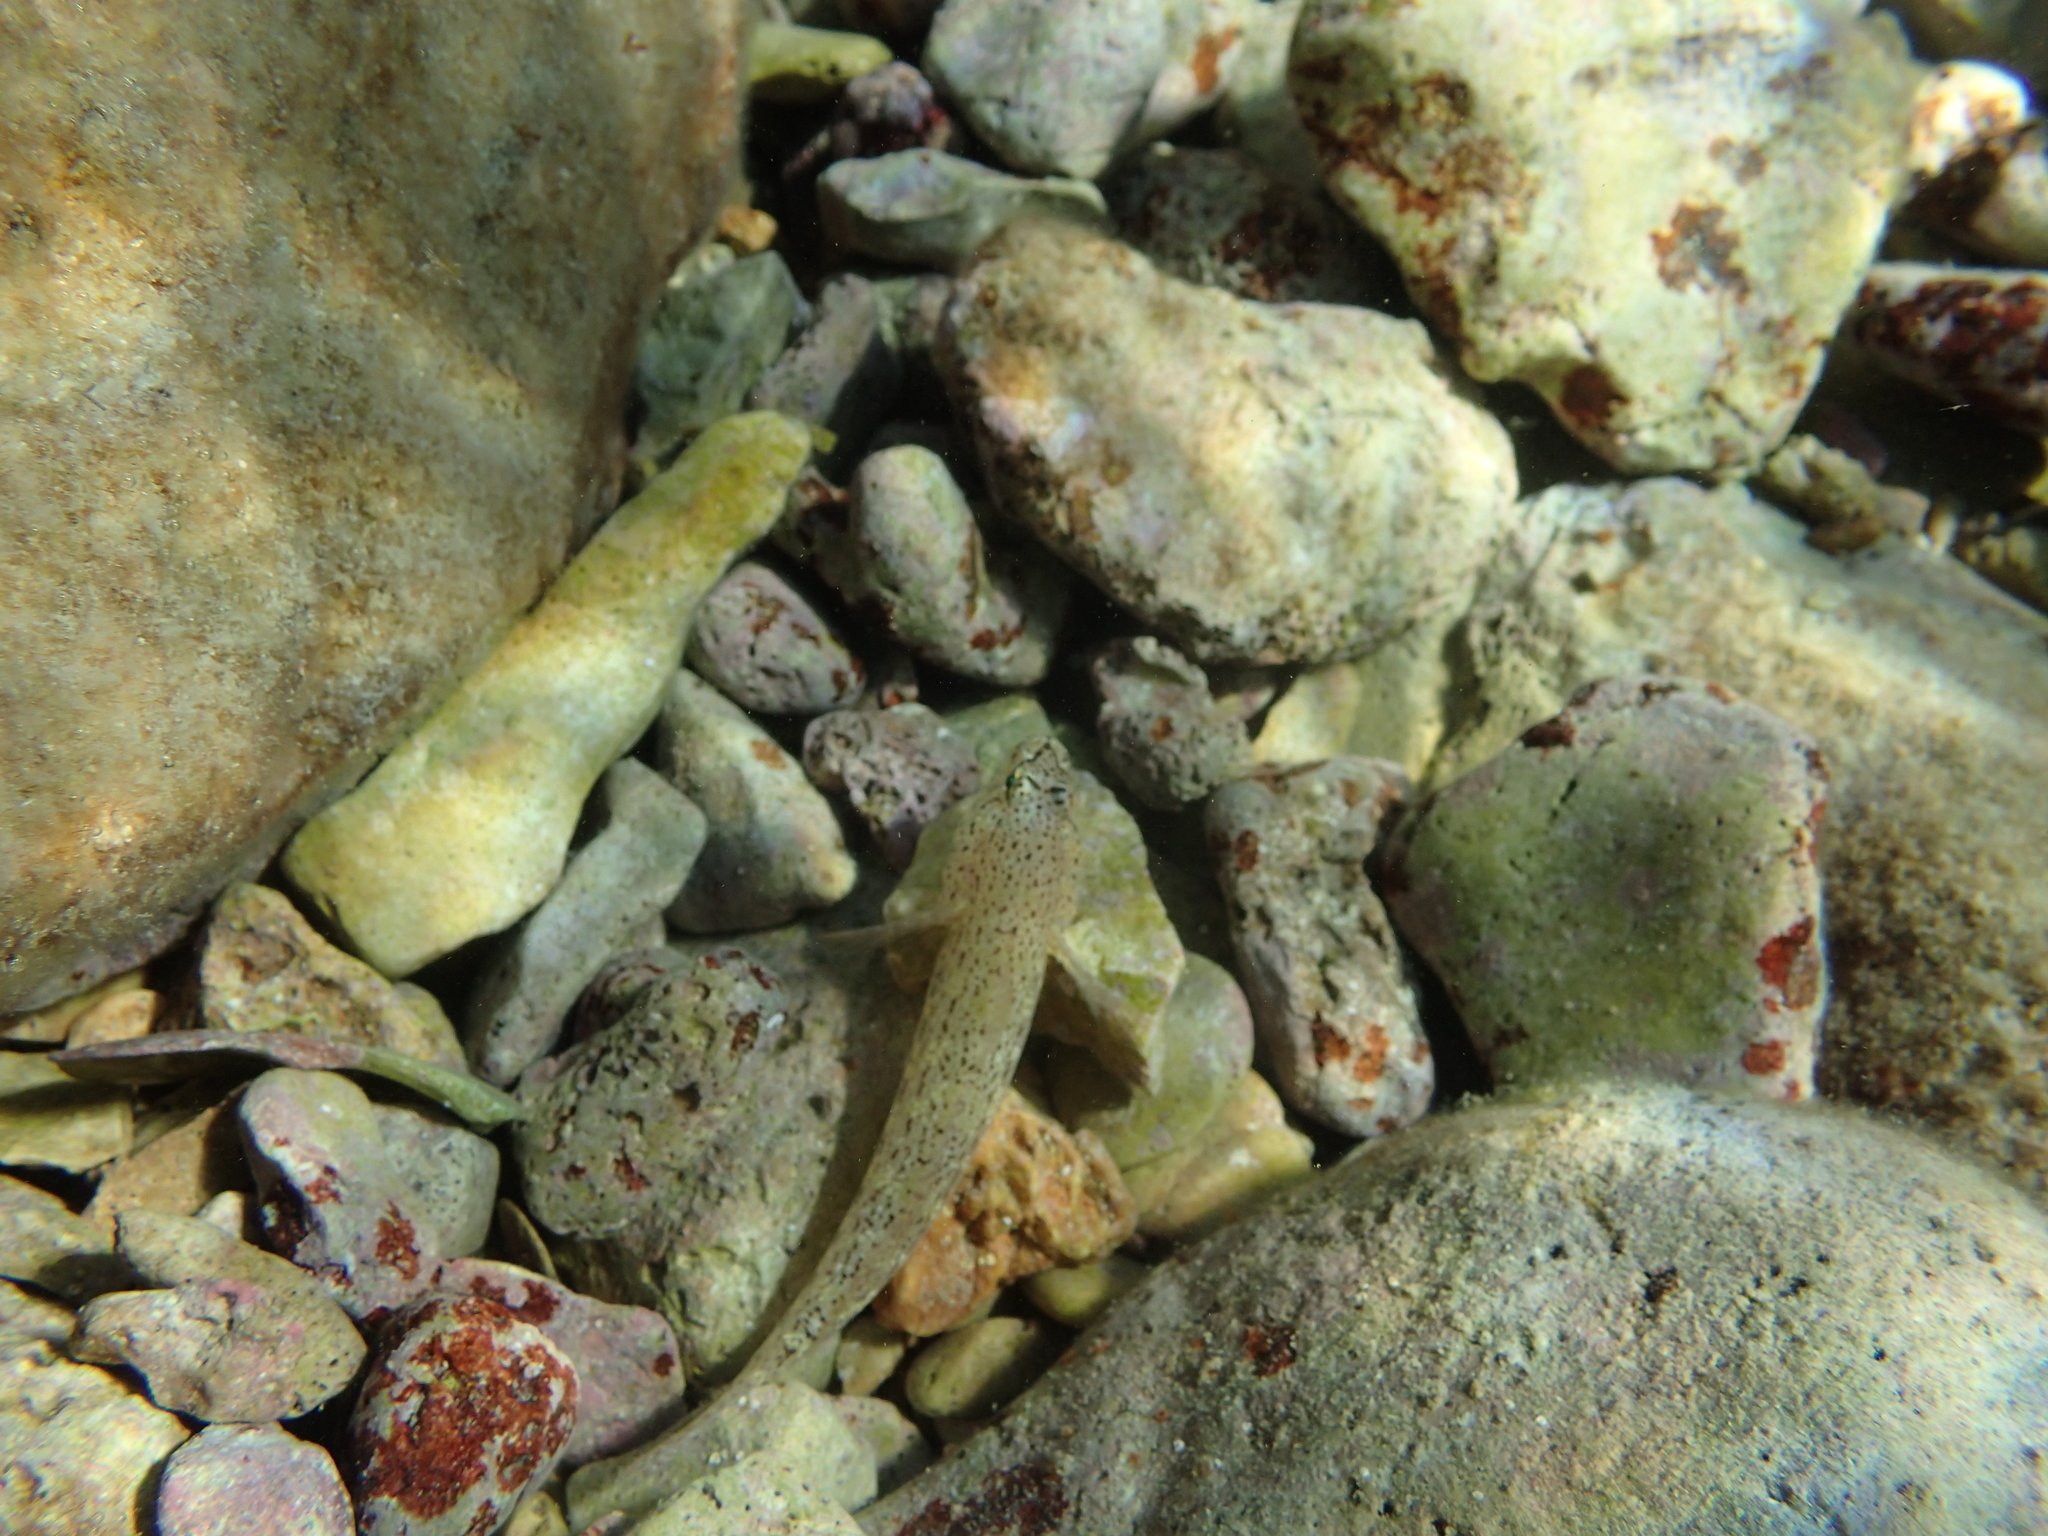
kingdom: Animalia
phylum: Chordata
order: Perciformes
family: Gobiidae
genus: Gobius
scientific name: Gobius incognitus
